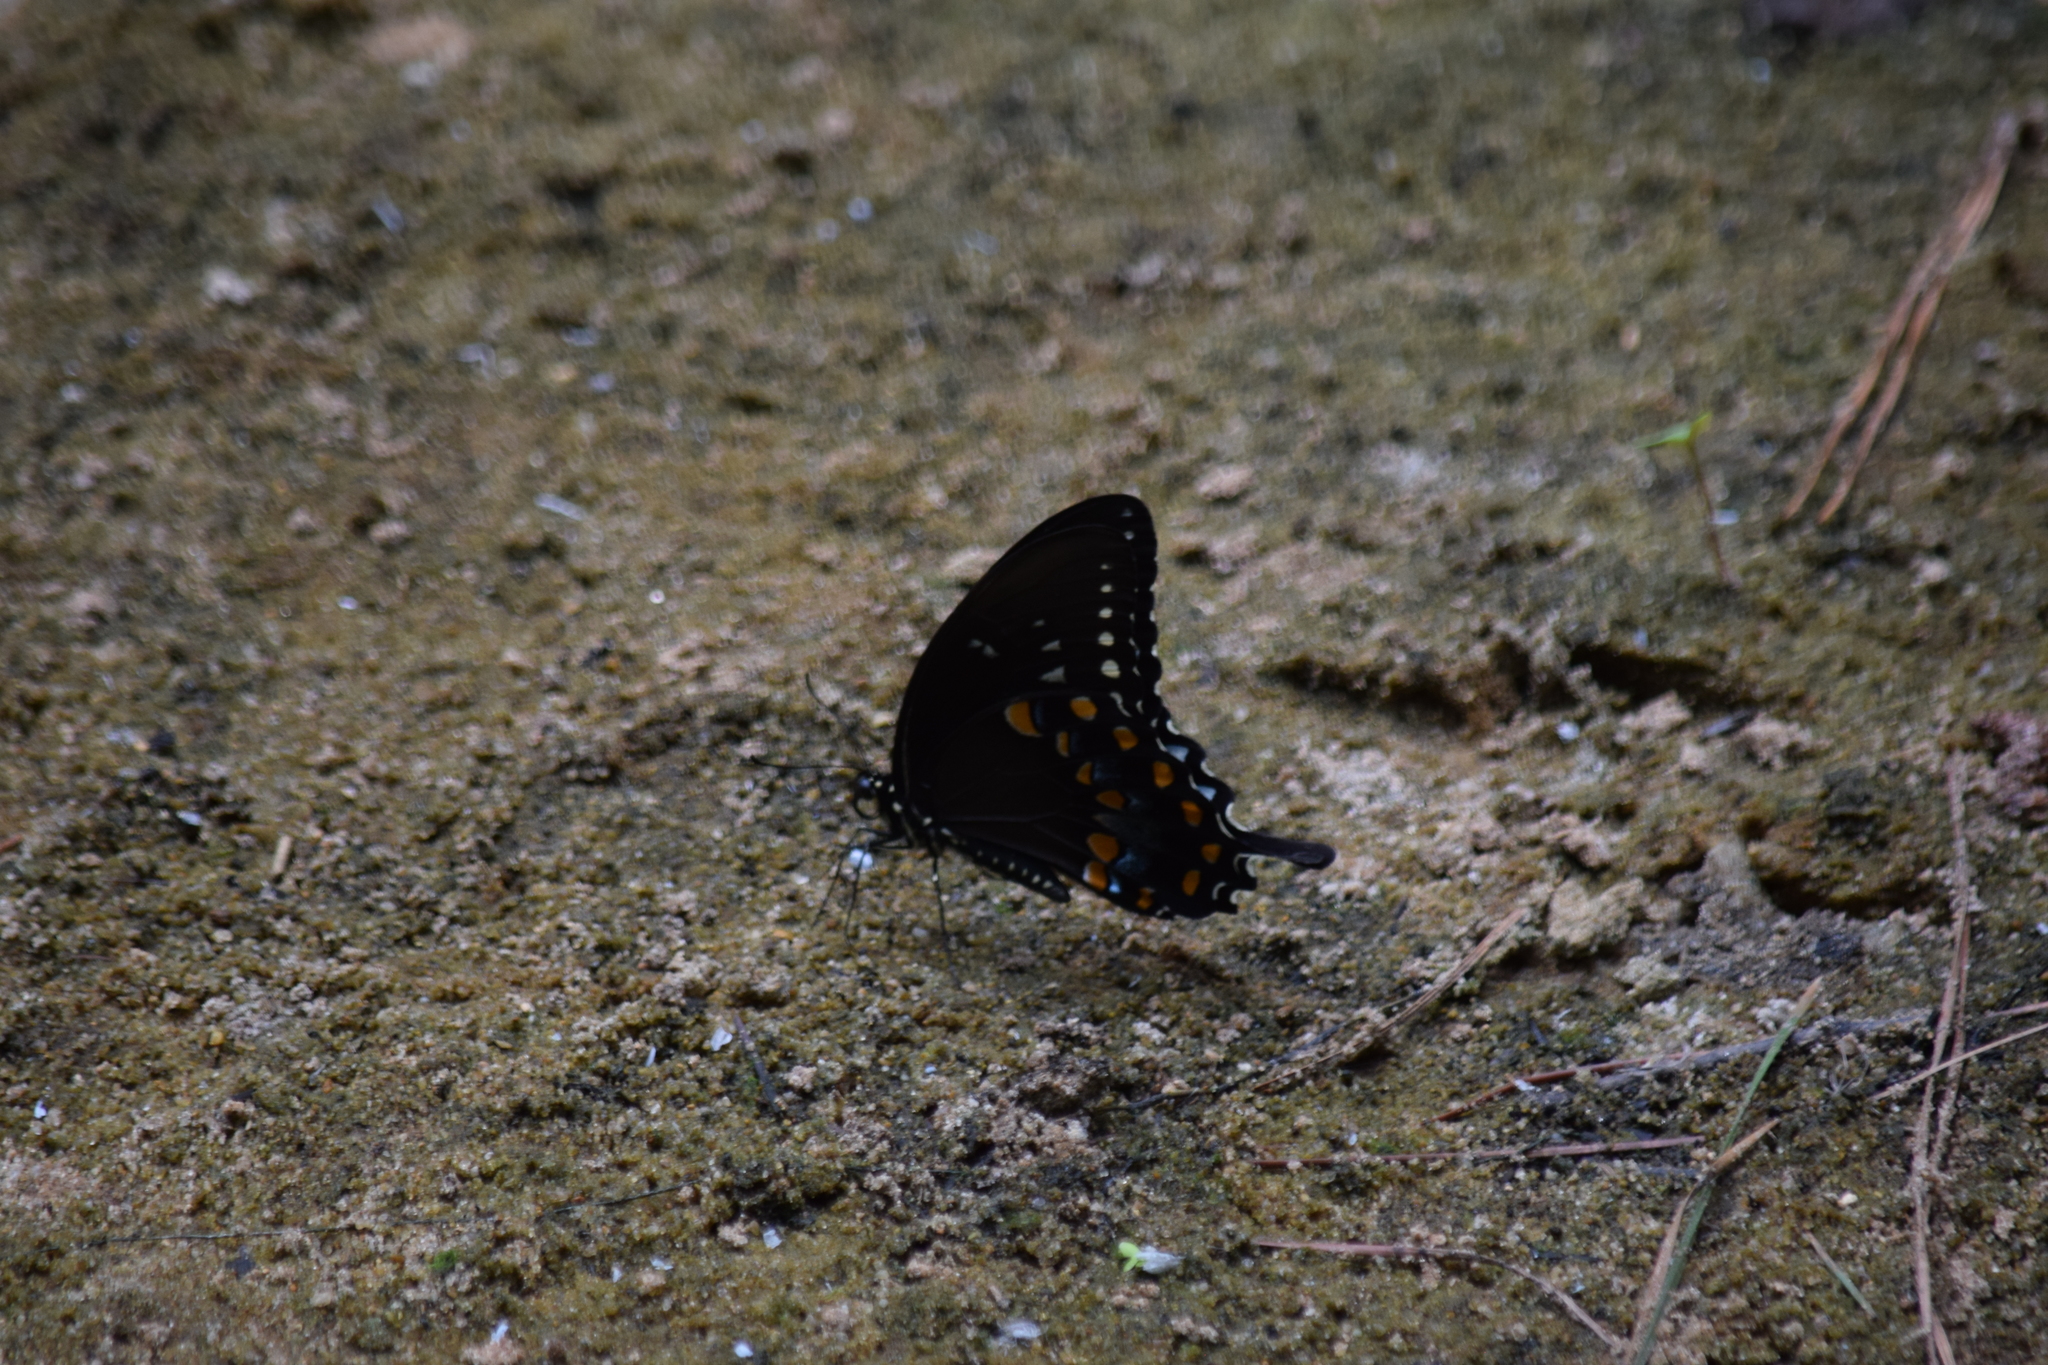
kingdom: Animalia
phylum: Arthropoda
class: Insecta
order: Lepidoptera
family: Papilionidae
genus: Papilio
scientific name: Papilio troilus
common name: Spicebush swallowtail
